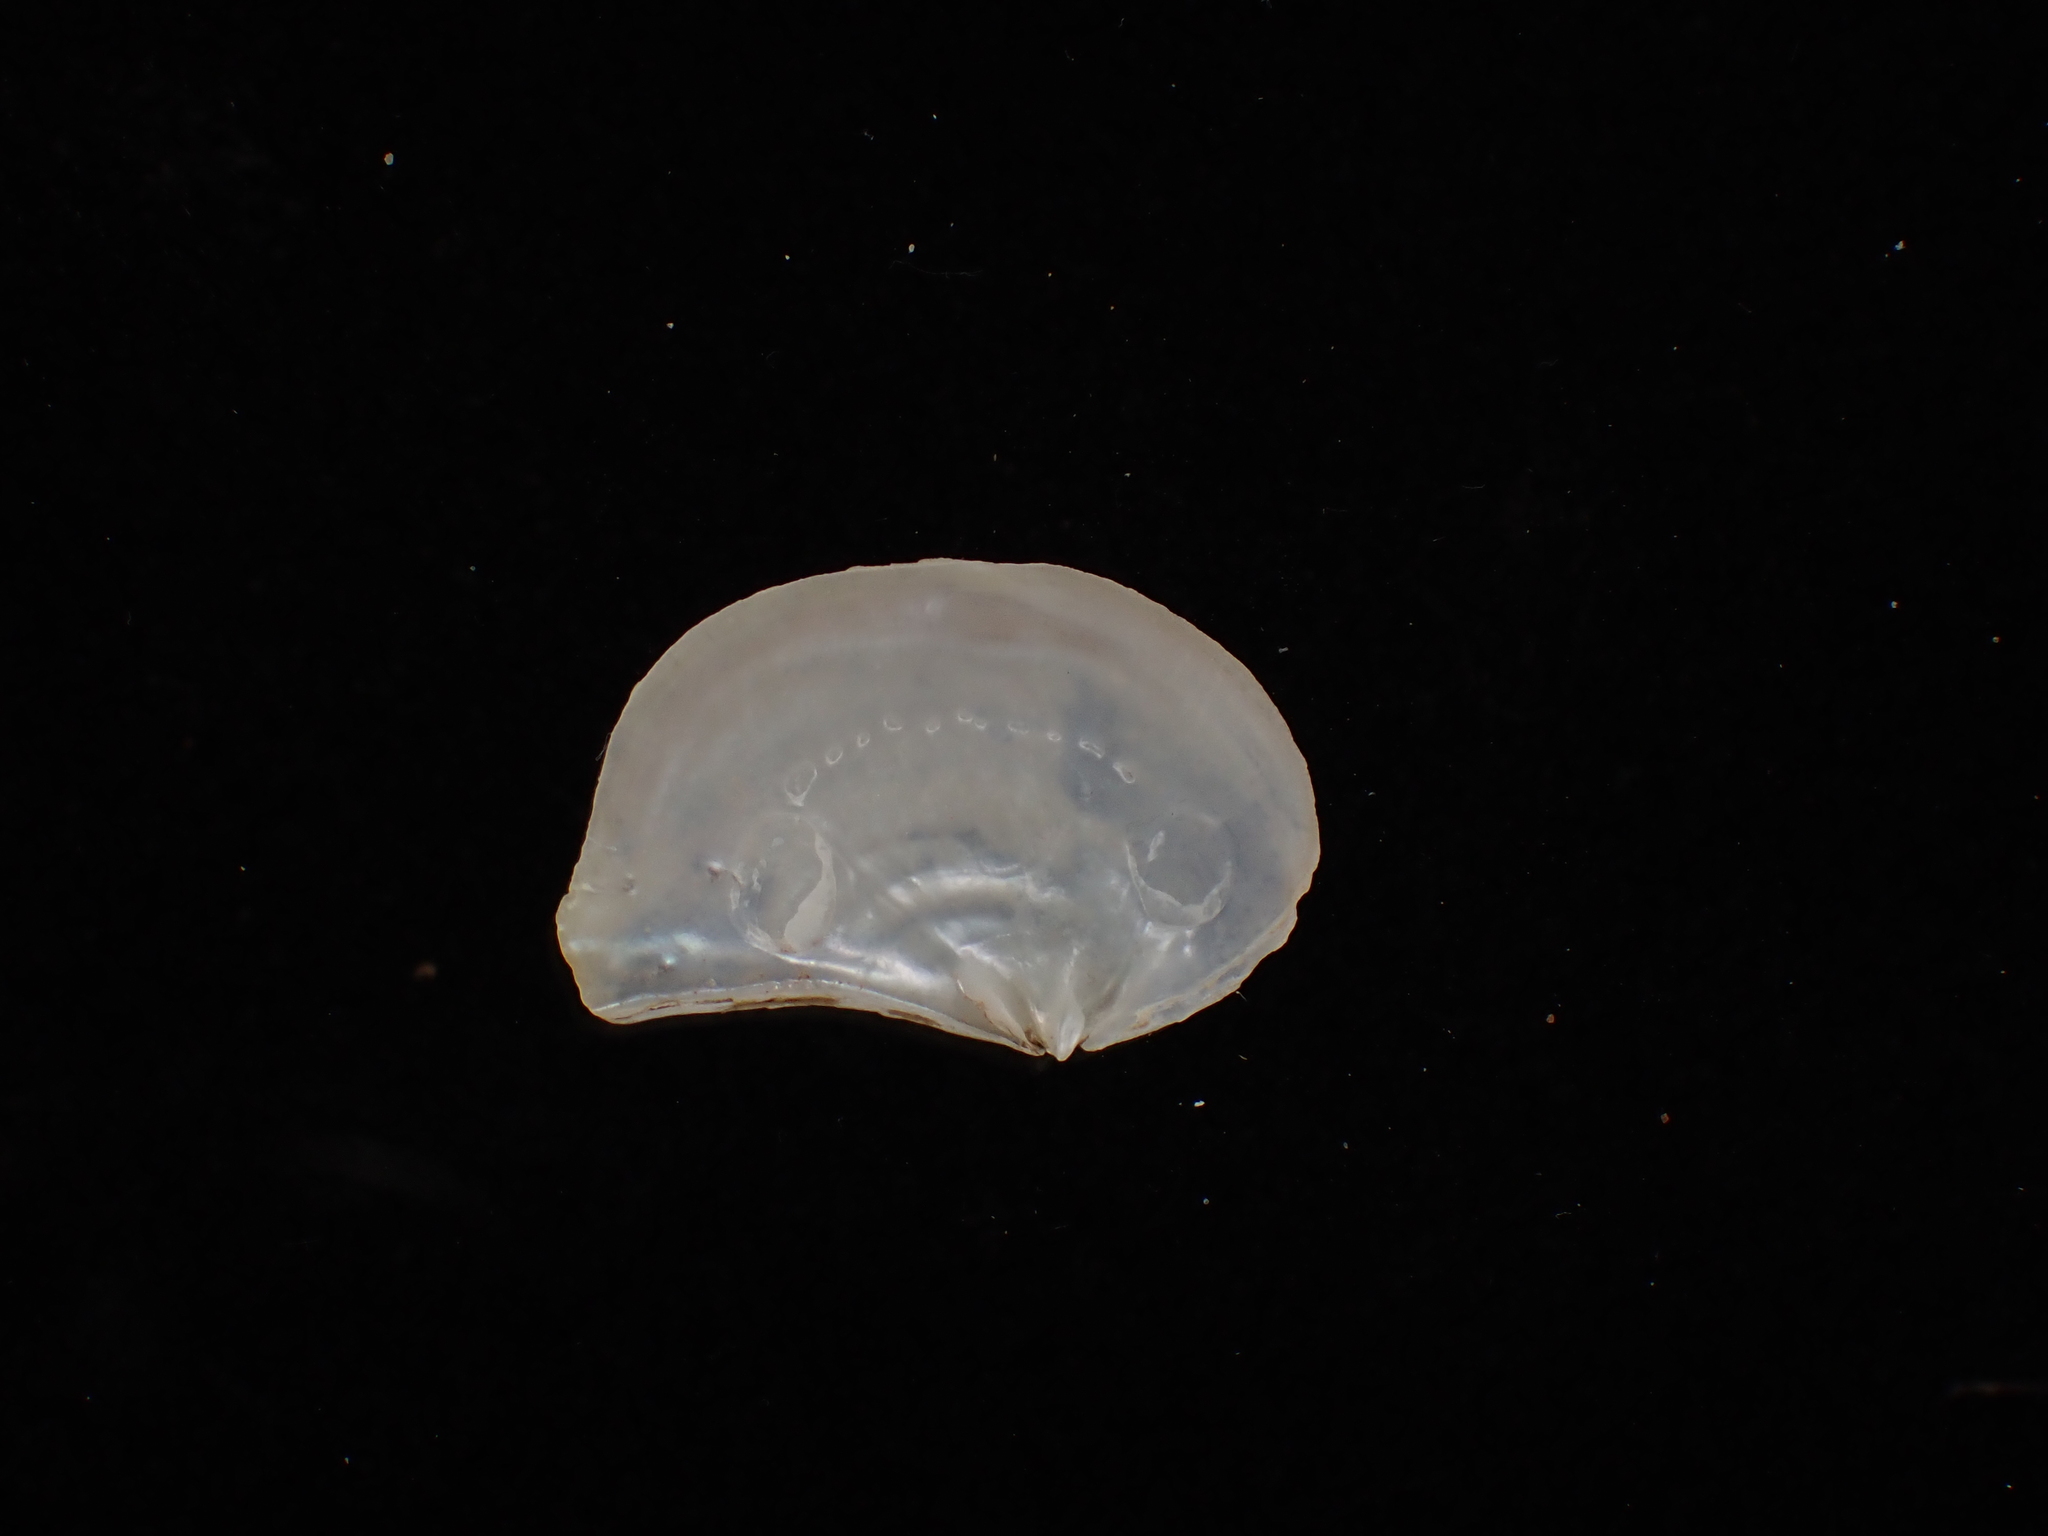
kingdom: Animalia
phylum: Mollusca
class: Bivalvia
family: Pandoridae
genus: Pandora
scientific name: Pandora gouldiana
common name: Rounded pandora
